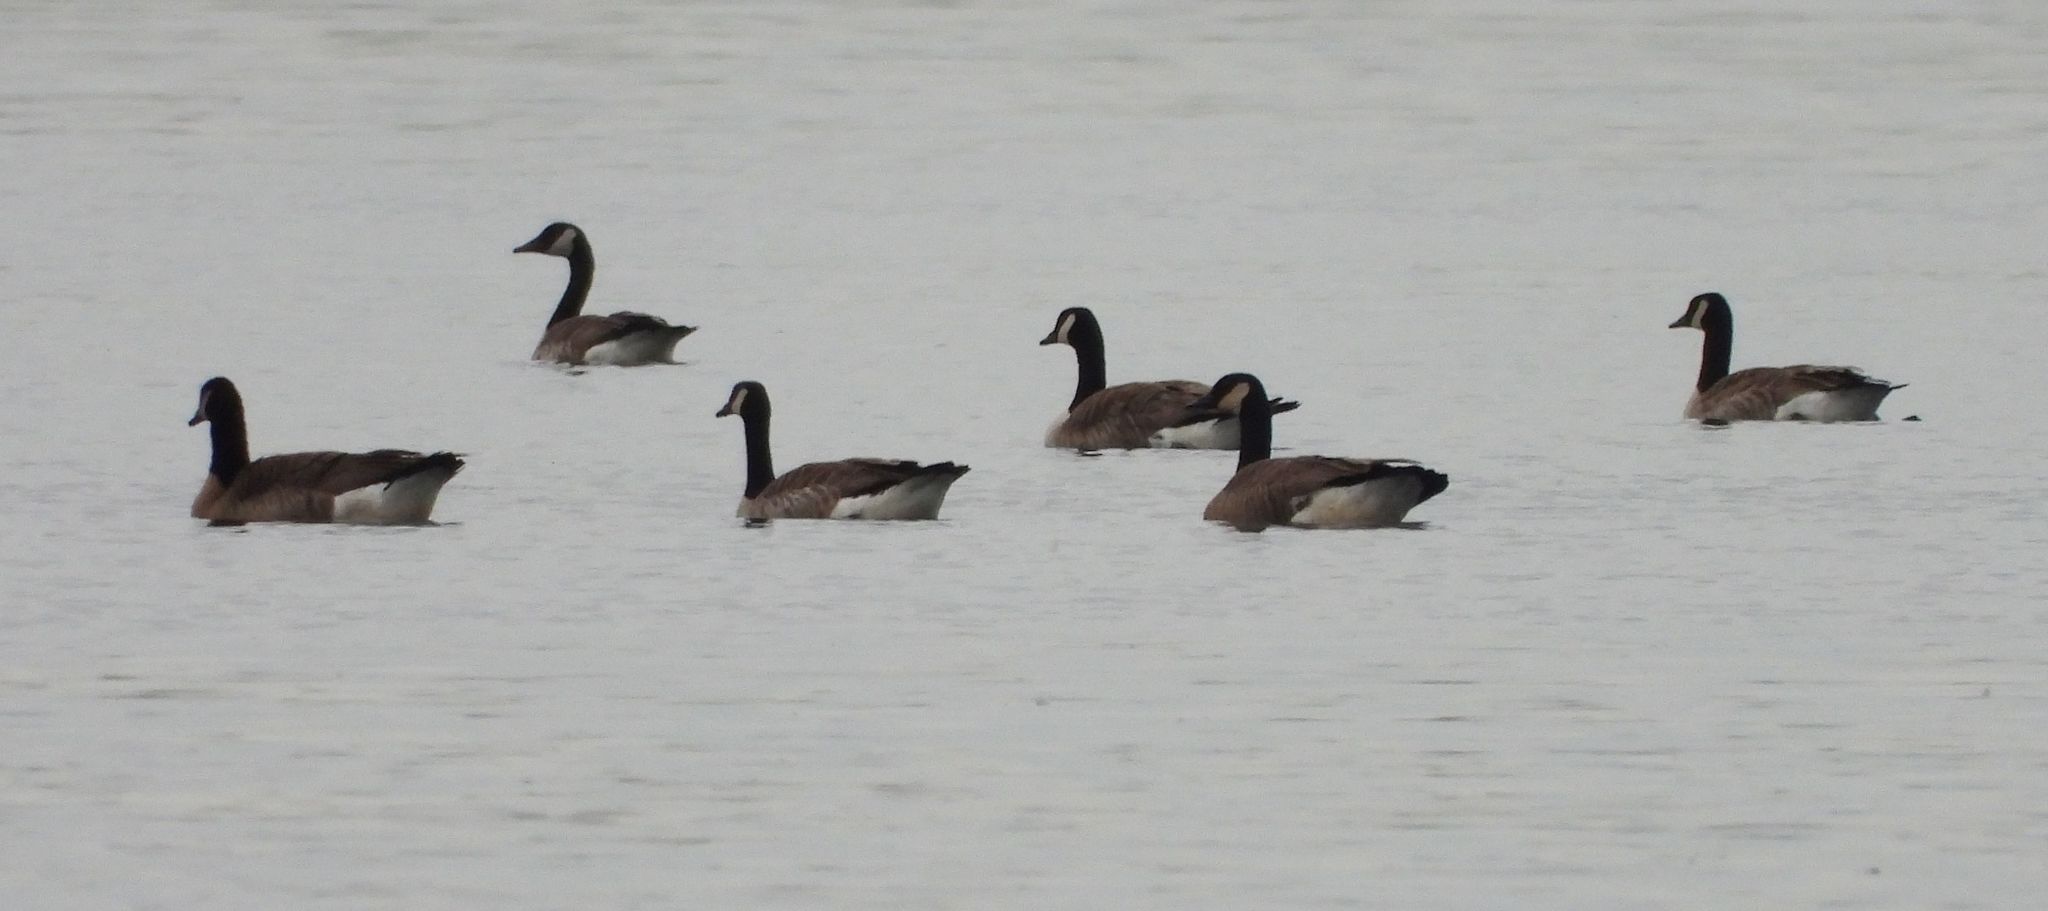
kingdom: Animalia
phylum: Chordata
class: Aves
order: Anseriformes
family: Anatidae
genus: Branta
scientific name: Branta canadensis
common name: Canada goose
